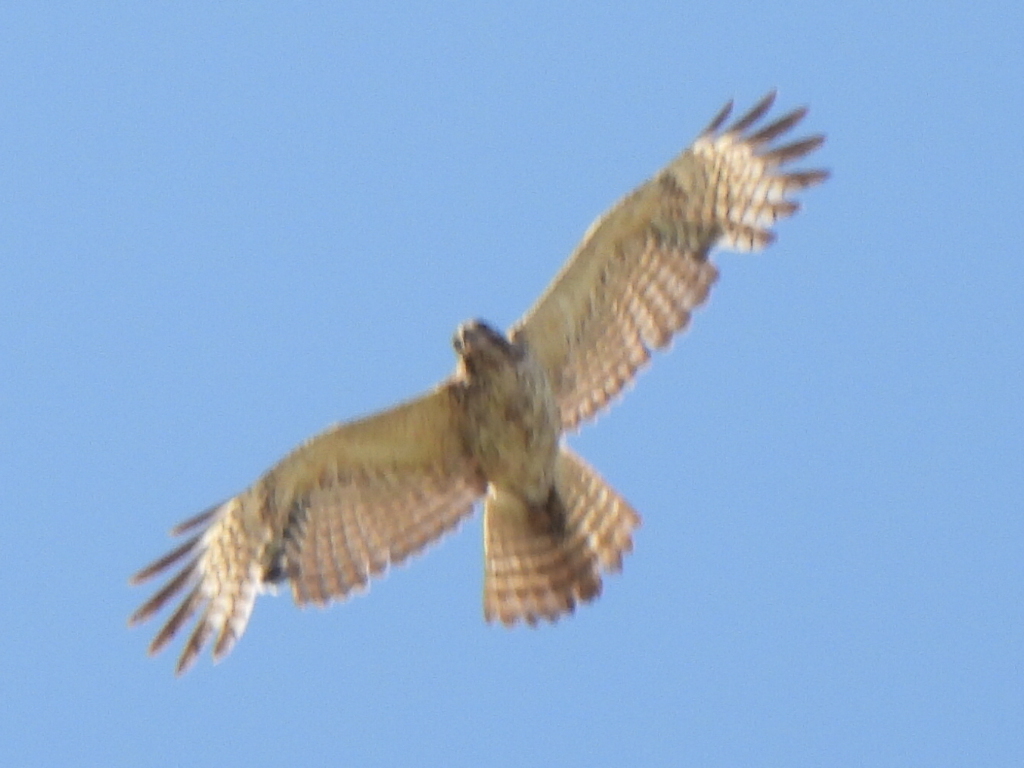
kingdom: Animalia
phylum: Chordata
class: Aves
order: Accipitriformes
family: Accipitridae
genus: Buteo
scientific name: Buteo lineatus
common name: Red-shouldered hawk
